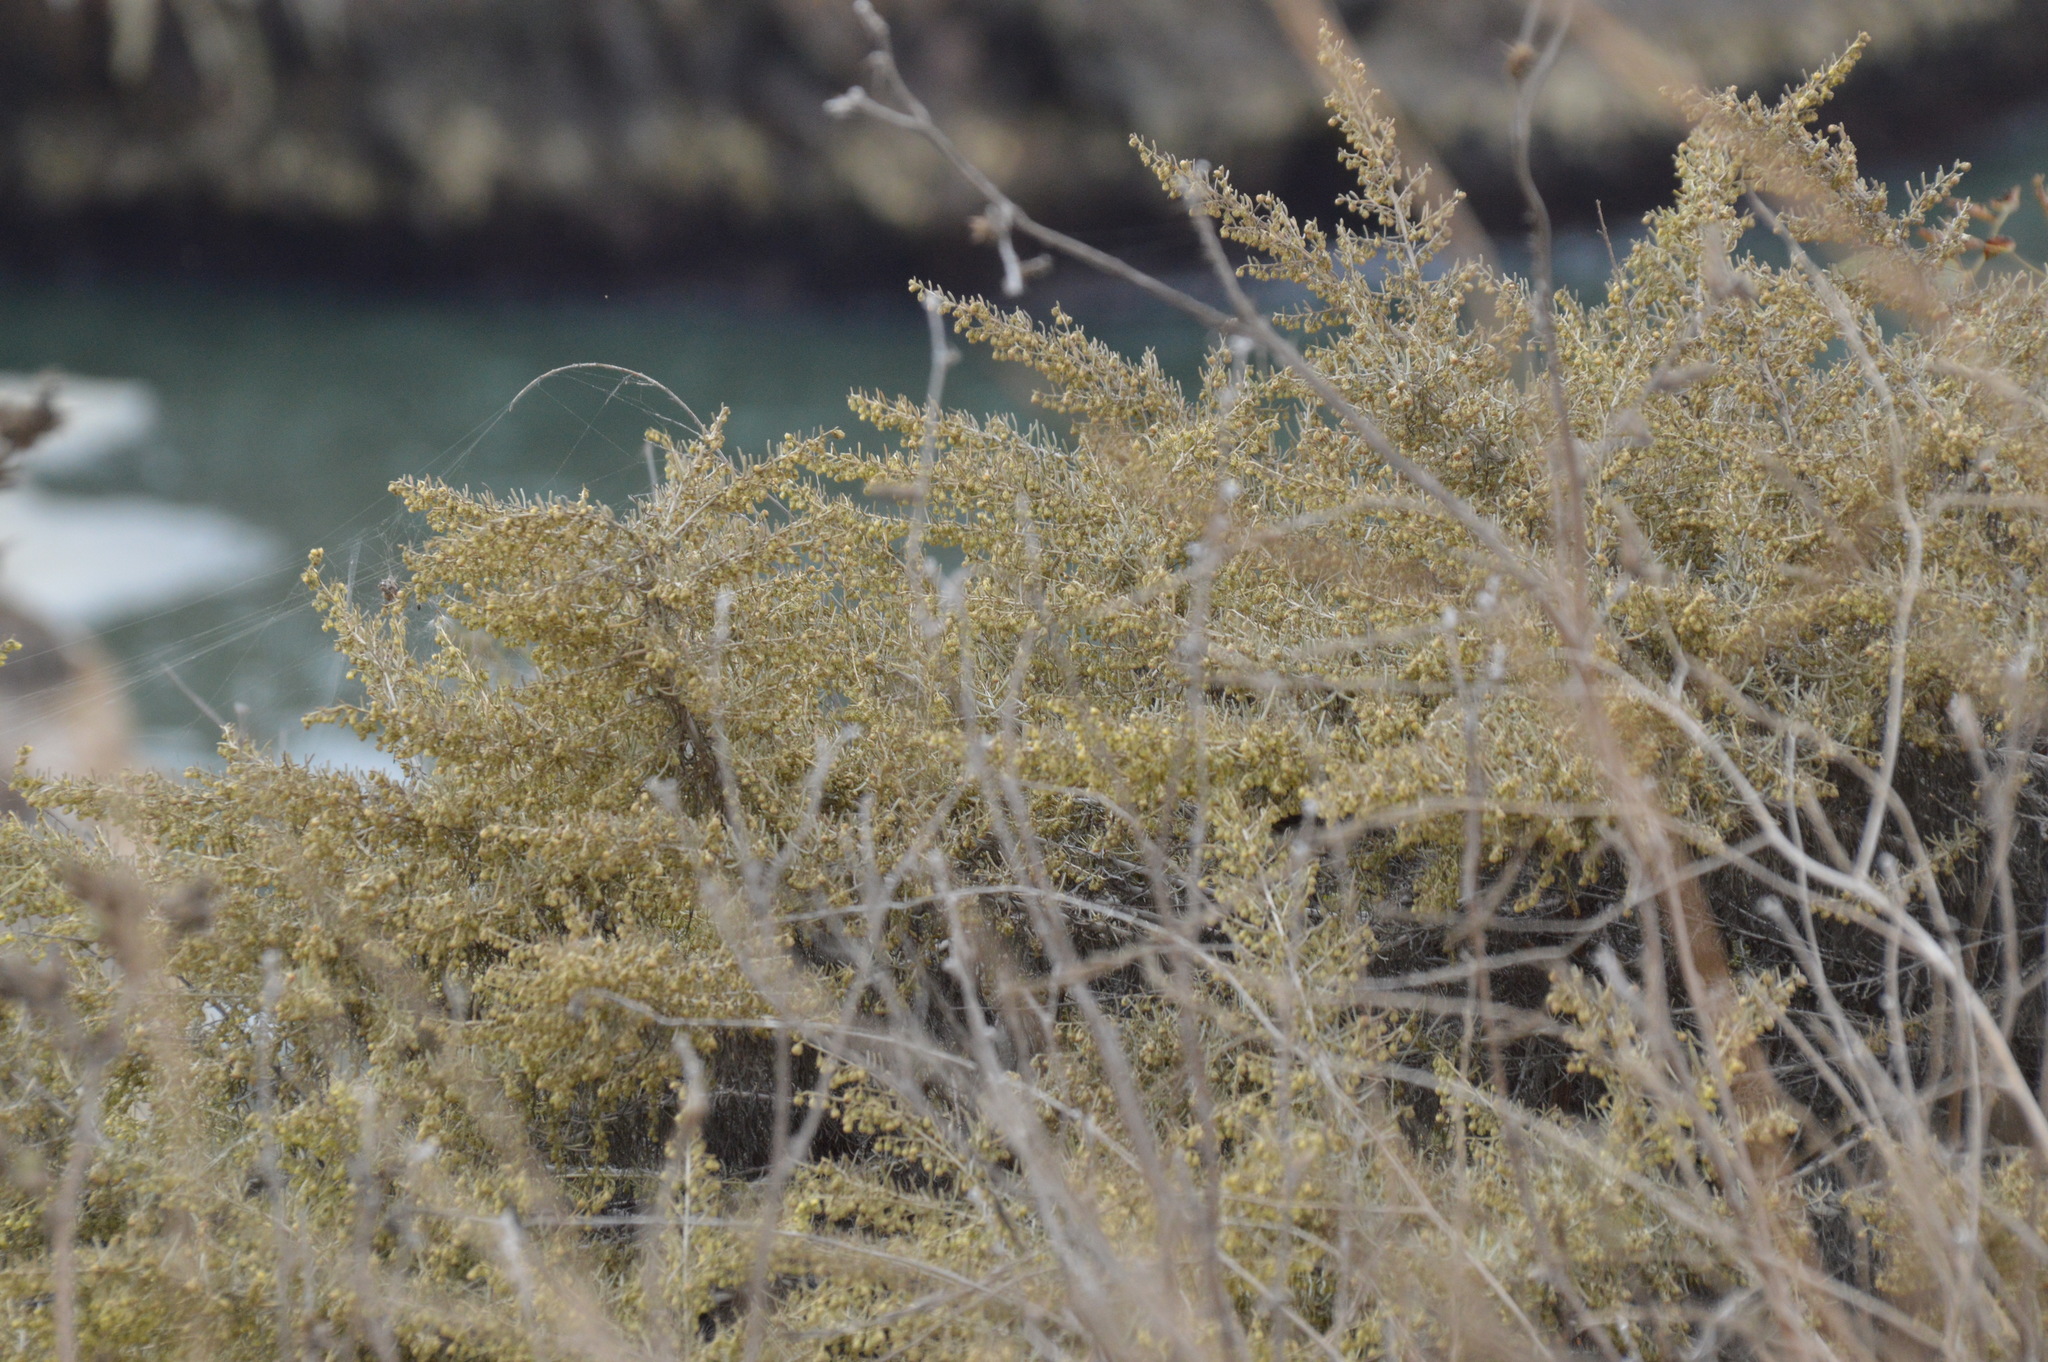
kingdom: Plantae
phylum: Tracheophyta
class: Magnoliopsida
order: Asterales
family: Asteraceae
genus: Artemisia
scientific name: Artemisia californica
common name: California sagebrush
